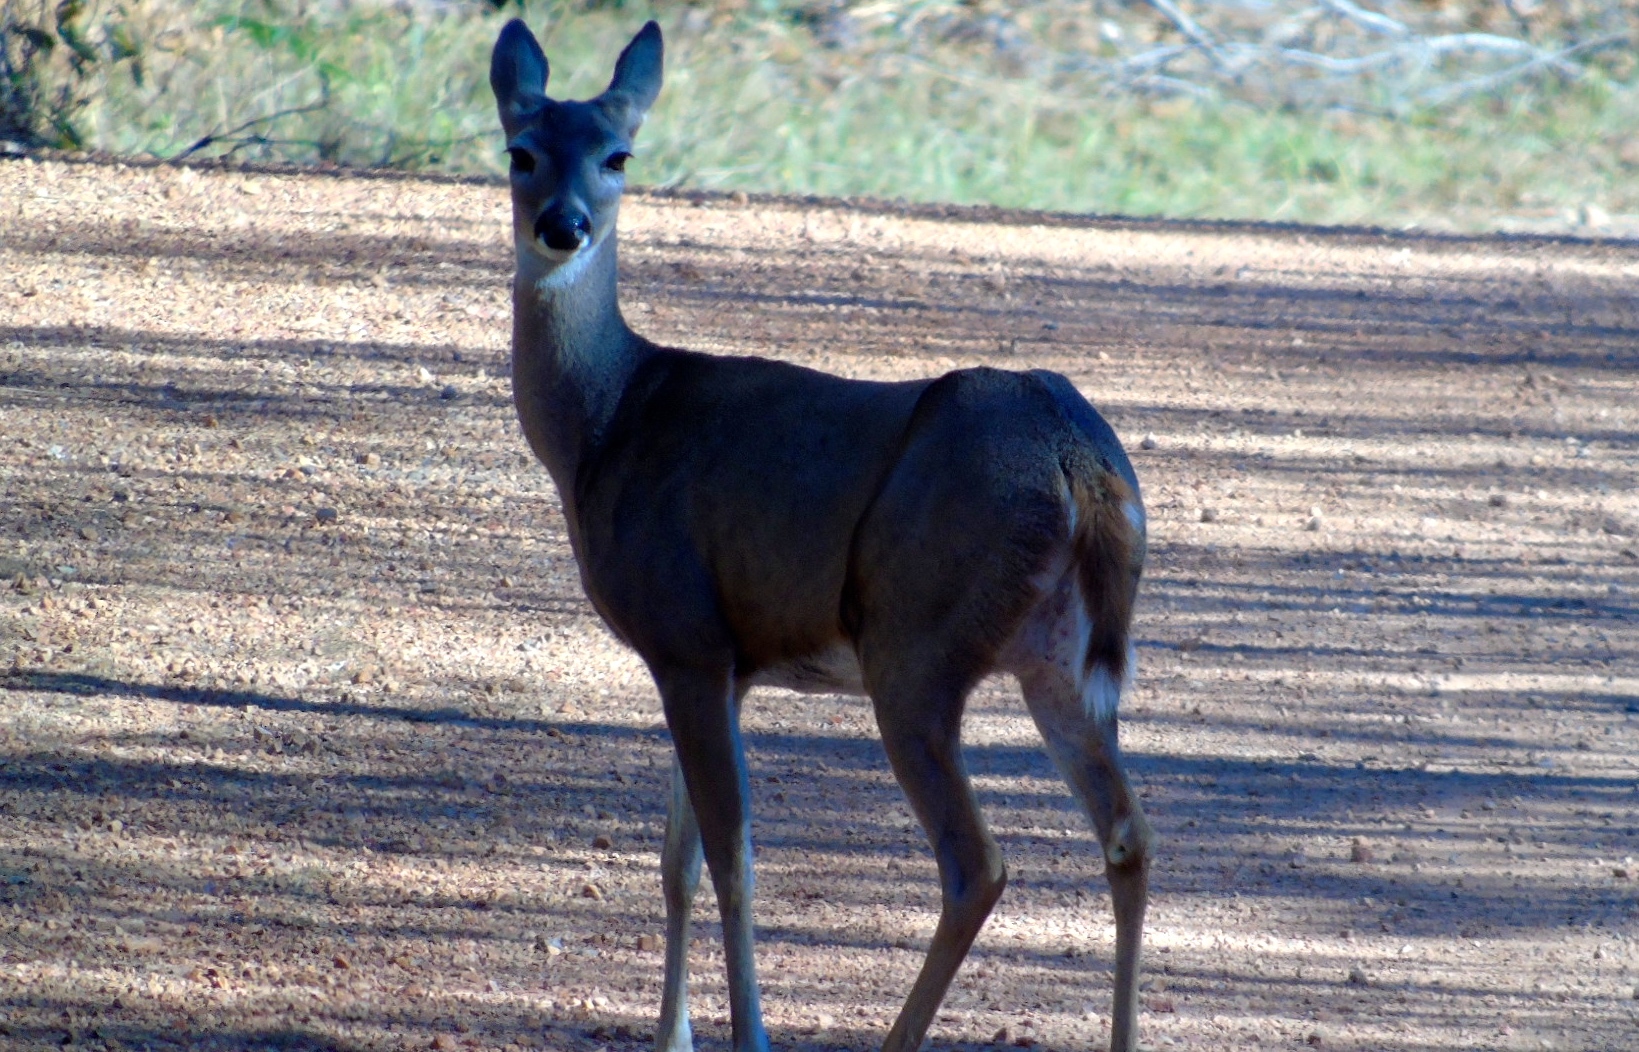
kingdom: Animalia
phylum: Chordata
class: Mammalia
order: Artiodactyla
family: Cervidae
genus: Odocoileus
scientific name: Odocoileus virginianus
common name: White-tailed deer
